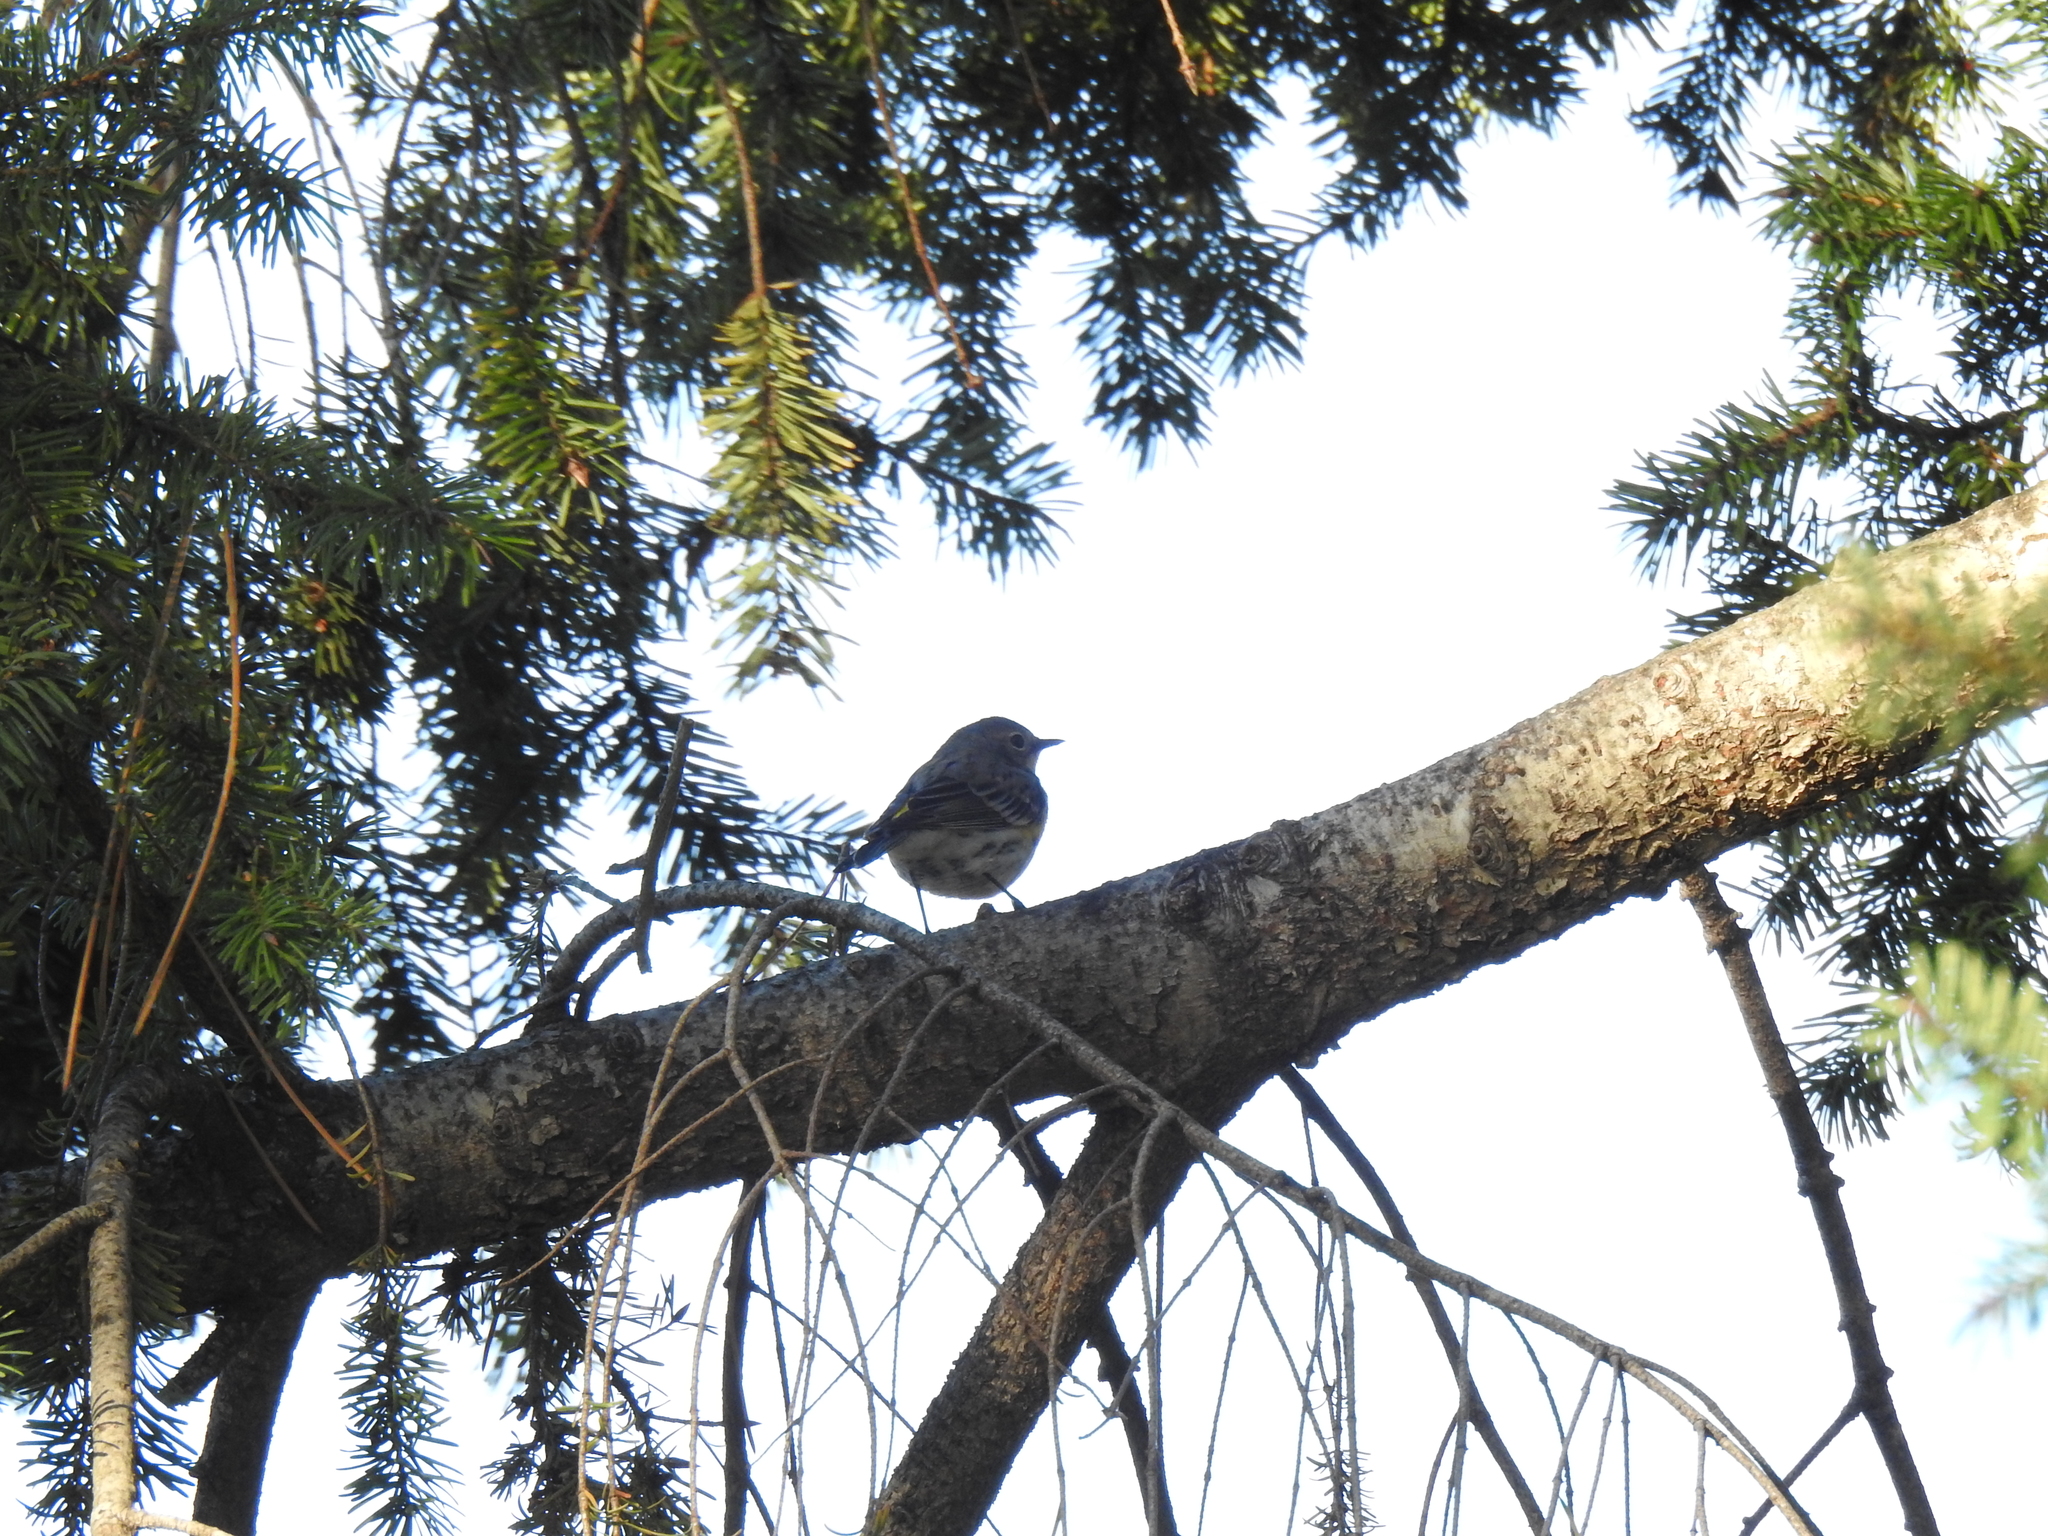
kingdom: Animalia
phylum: Chordata
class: Aves
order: Passeriformes
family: Parulidae
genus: Setophaga
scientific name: Setophaga coronata
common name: Myrtle warbler
